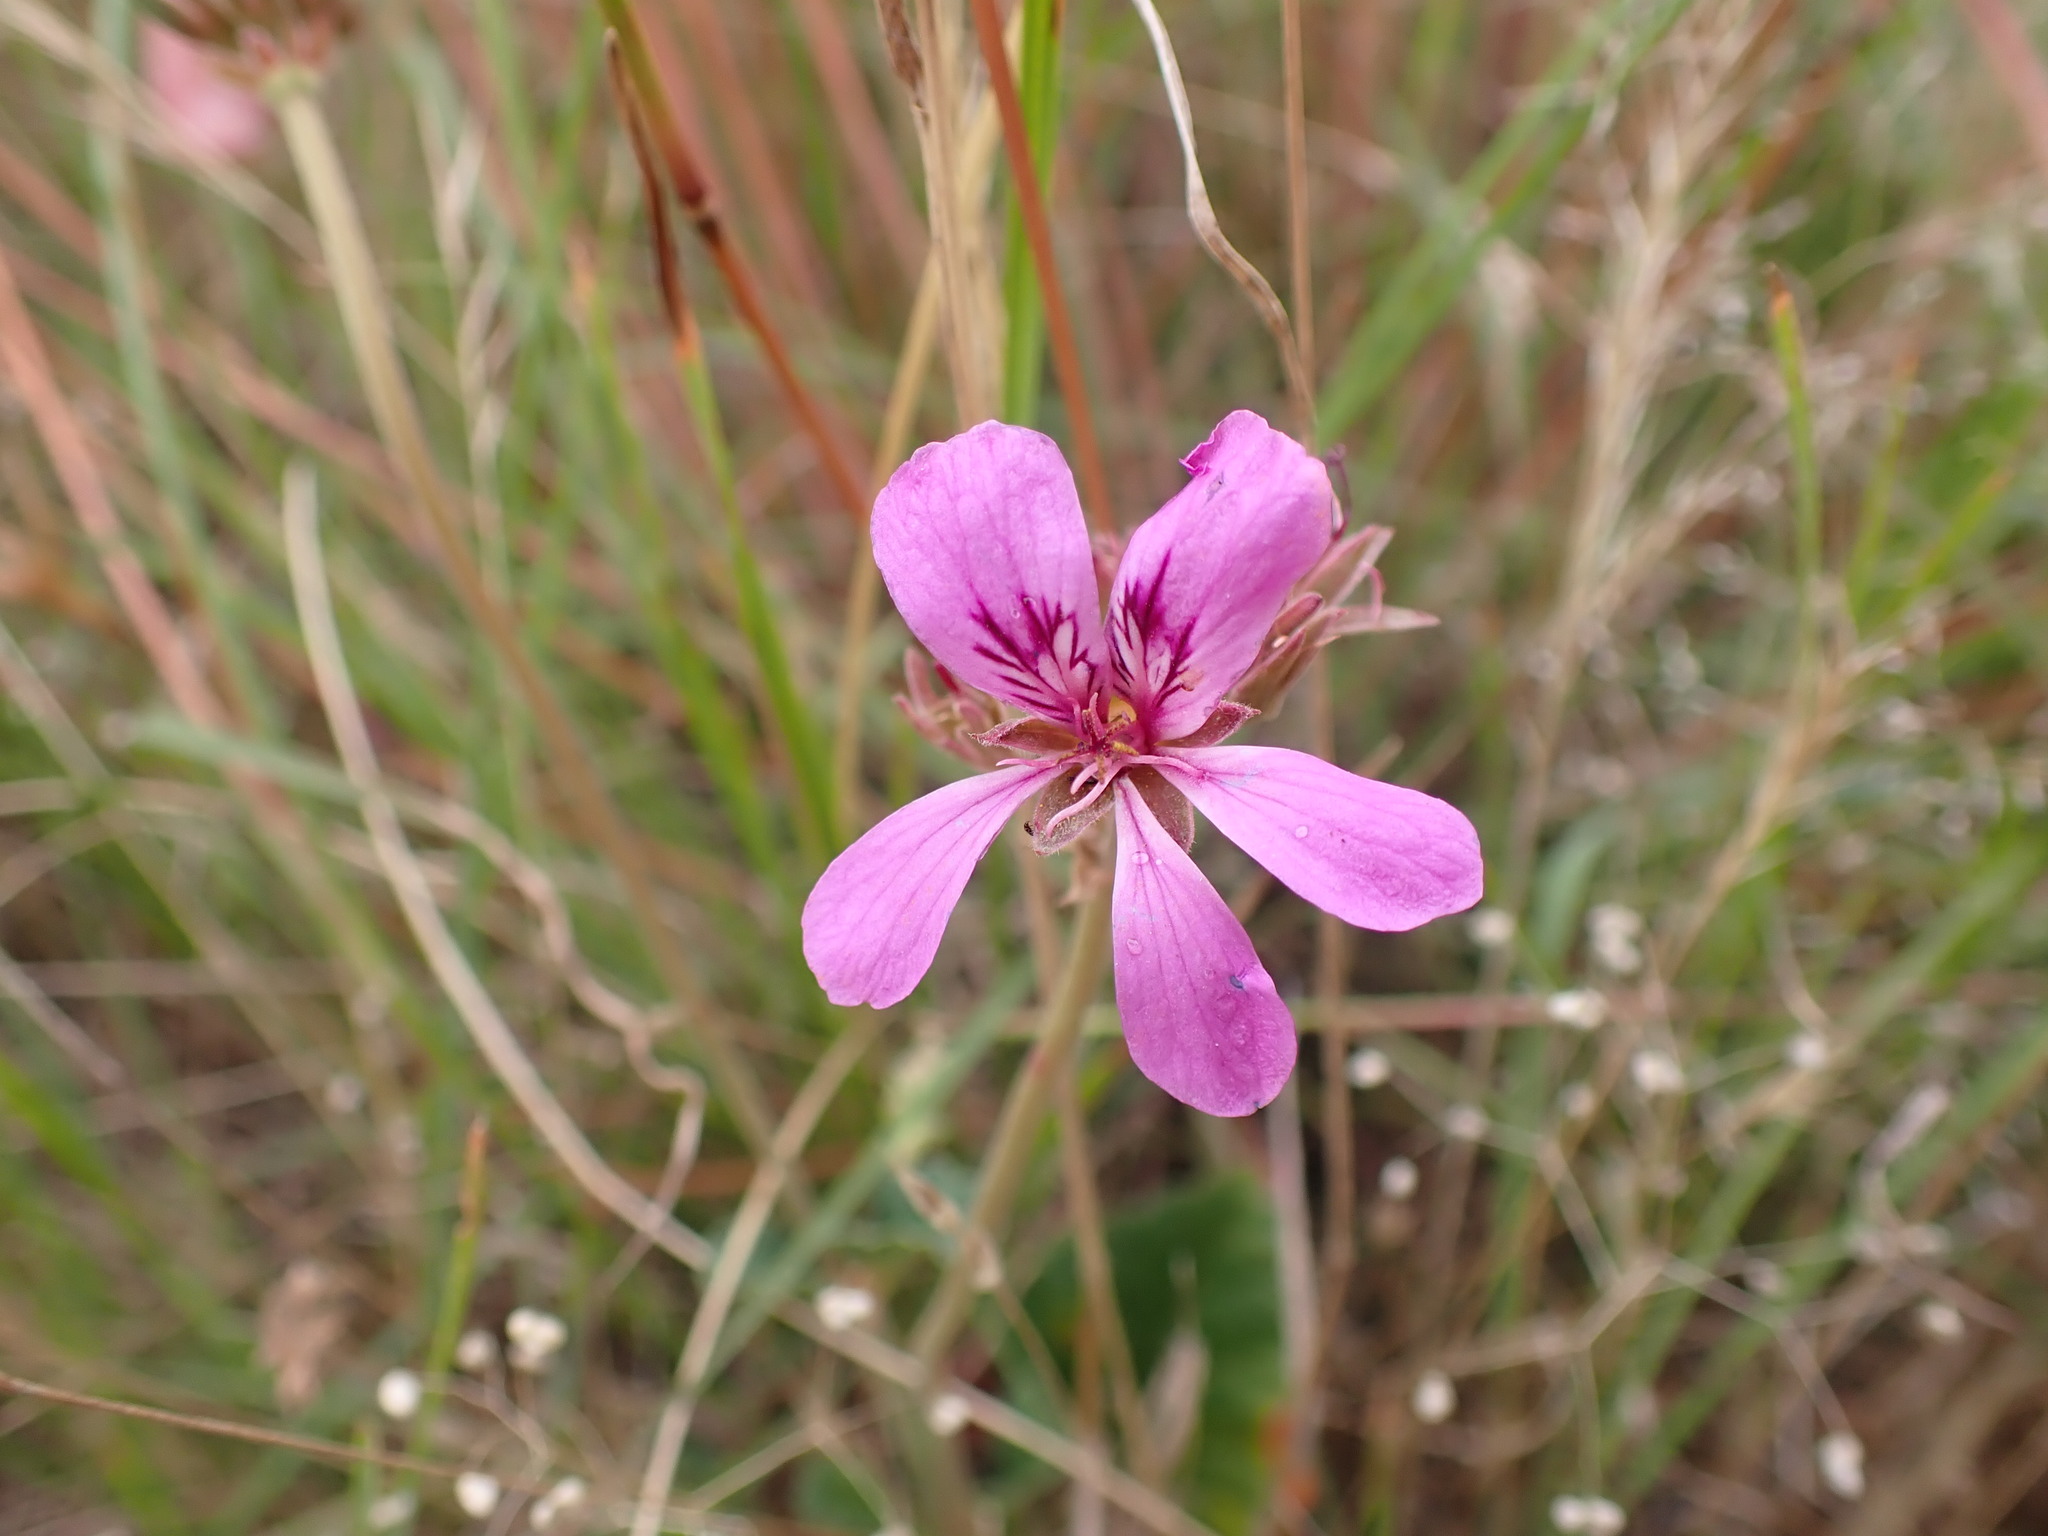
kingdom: Plantae
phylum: Tracheophyta
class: Magnoliopsida
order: Geraniales
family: Geraniaceae
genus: Pelargonium
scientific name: Pelargonium rodneyanum
